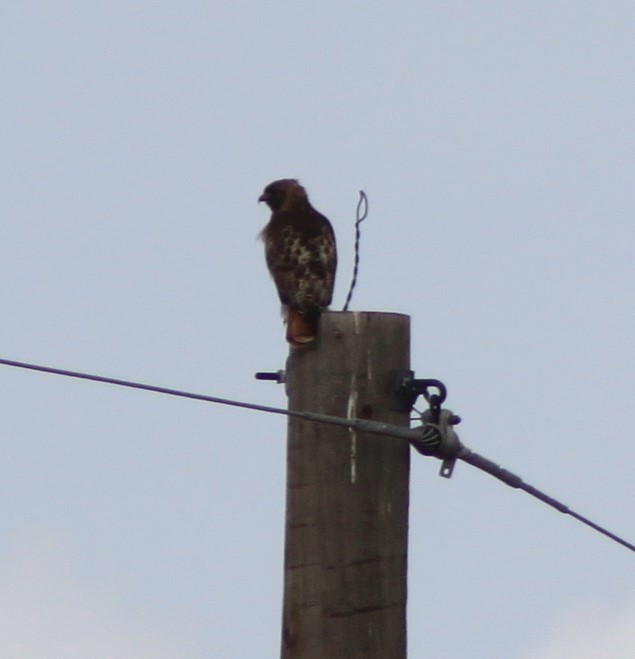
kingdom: Animalia
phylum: Chordata
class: Aves
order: Accipitriformes
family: Accipitridae
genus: Buteo
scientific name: Buteo jamaicensis
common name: Red-tailed hawk
